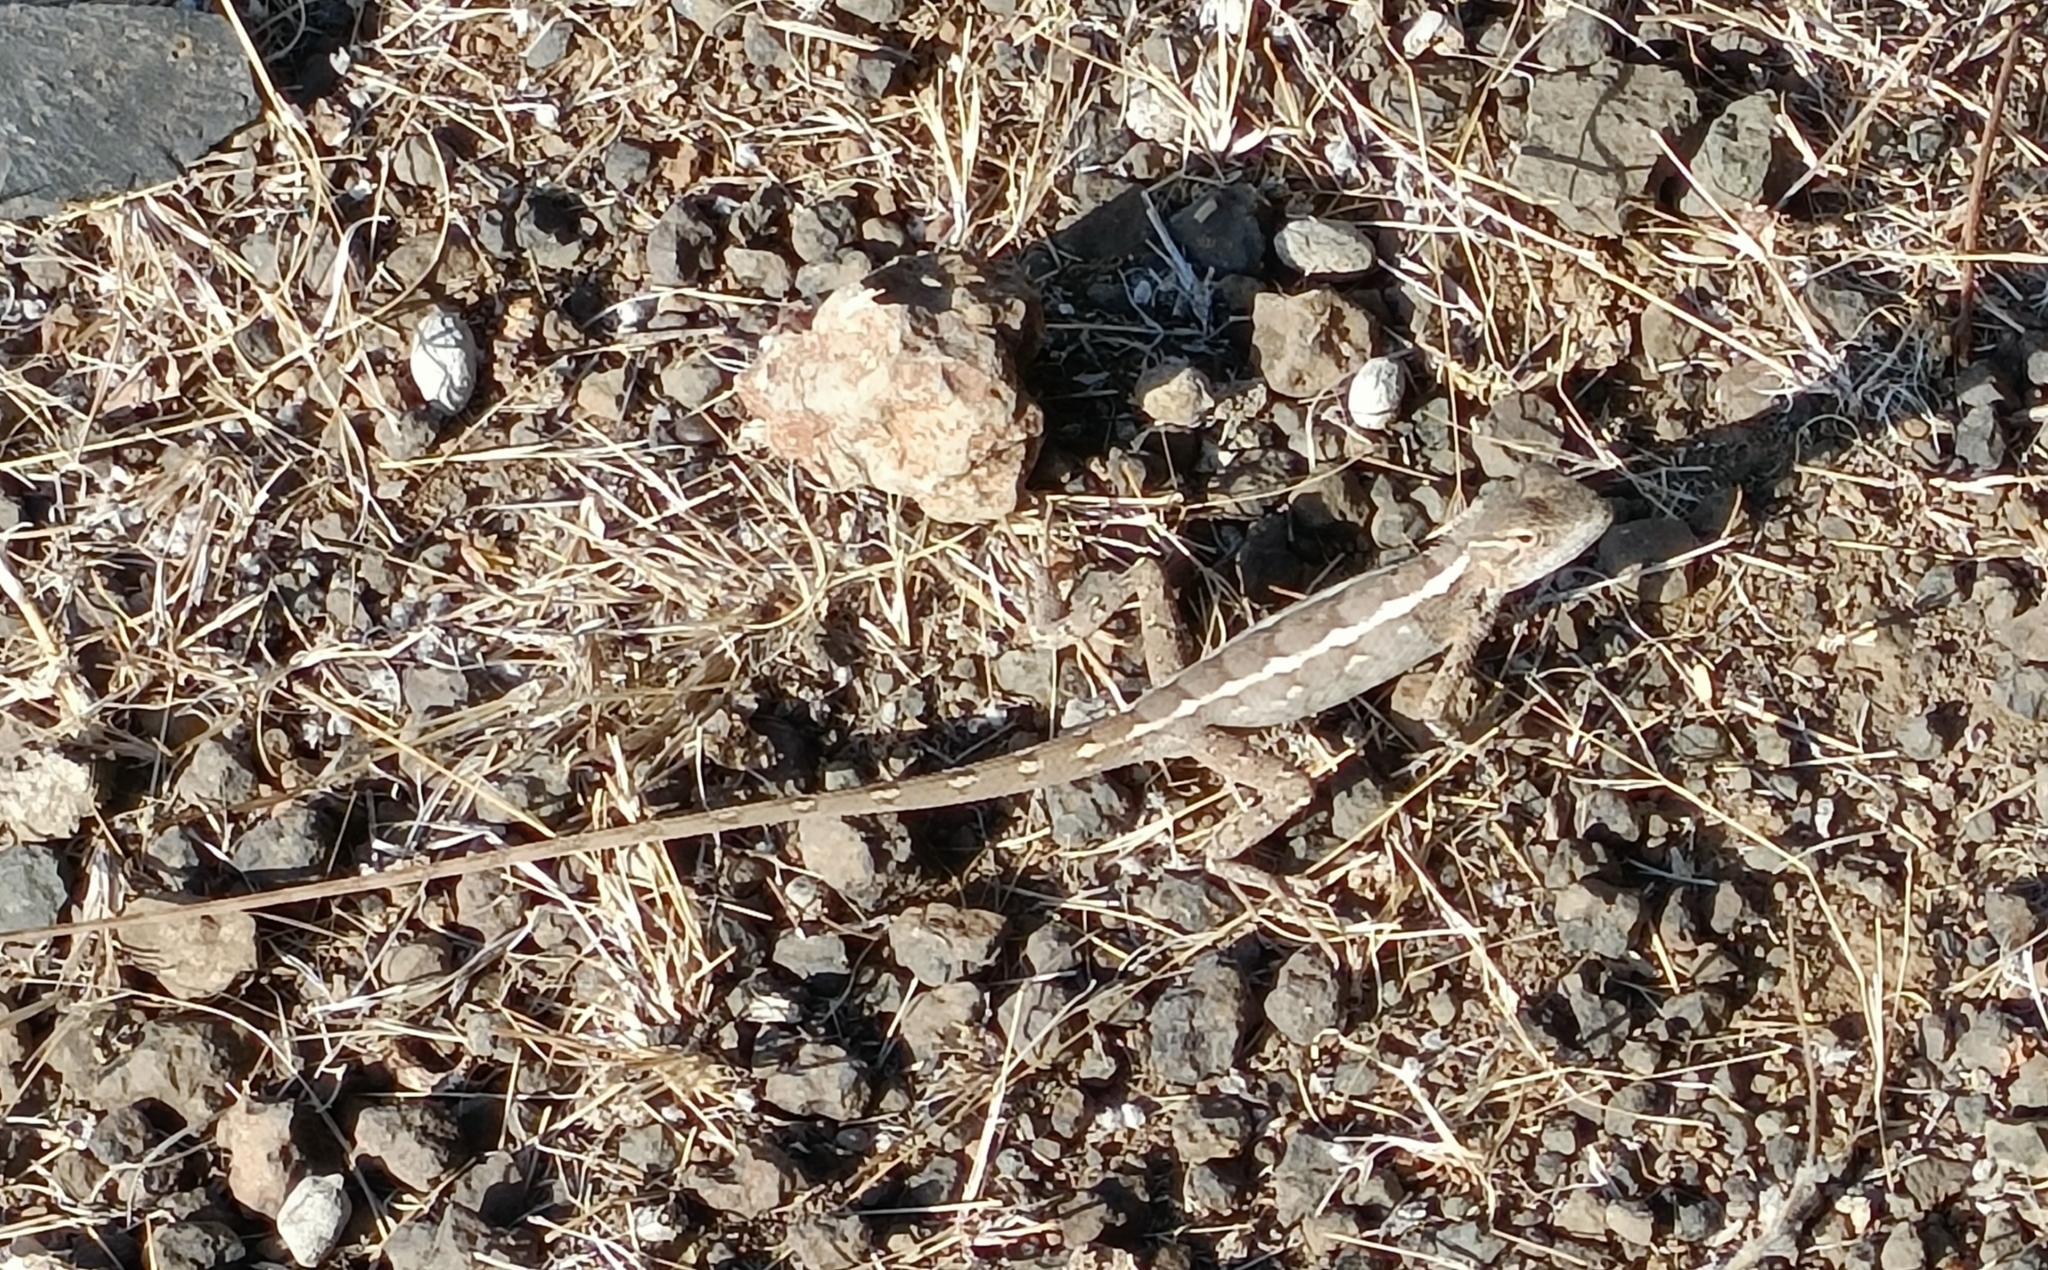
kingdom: Animalia
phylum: Chordata
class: Squamata
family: Agamidae
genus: Calotes
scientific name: Calotes versicolor
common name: Oriental garden lizard
